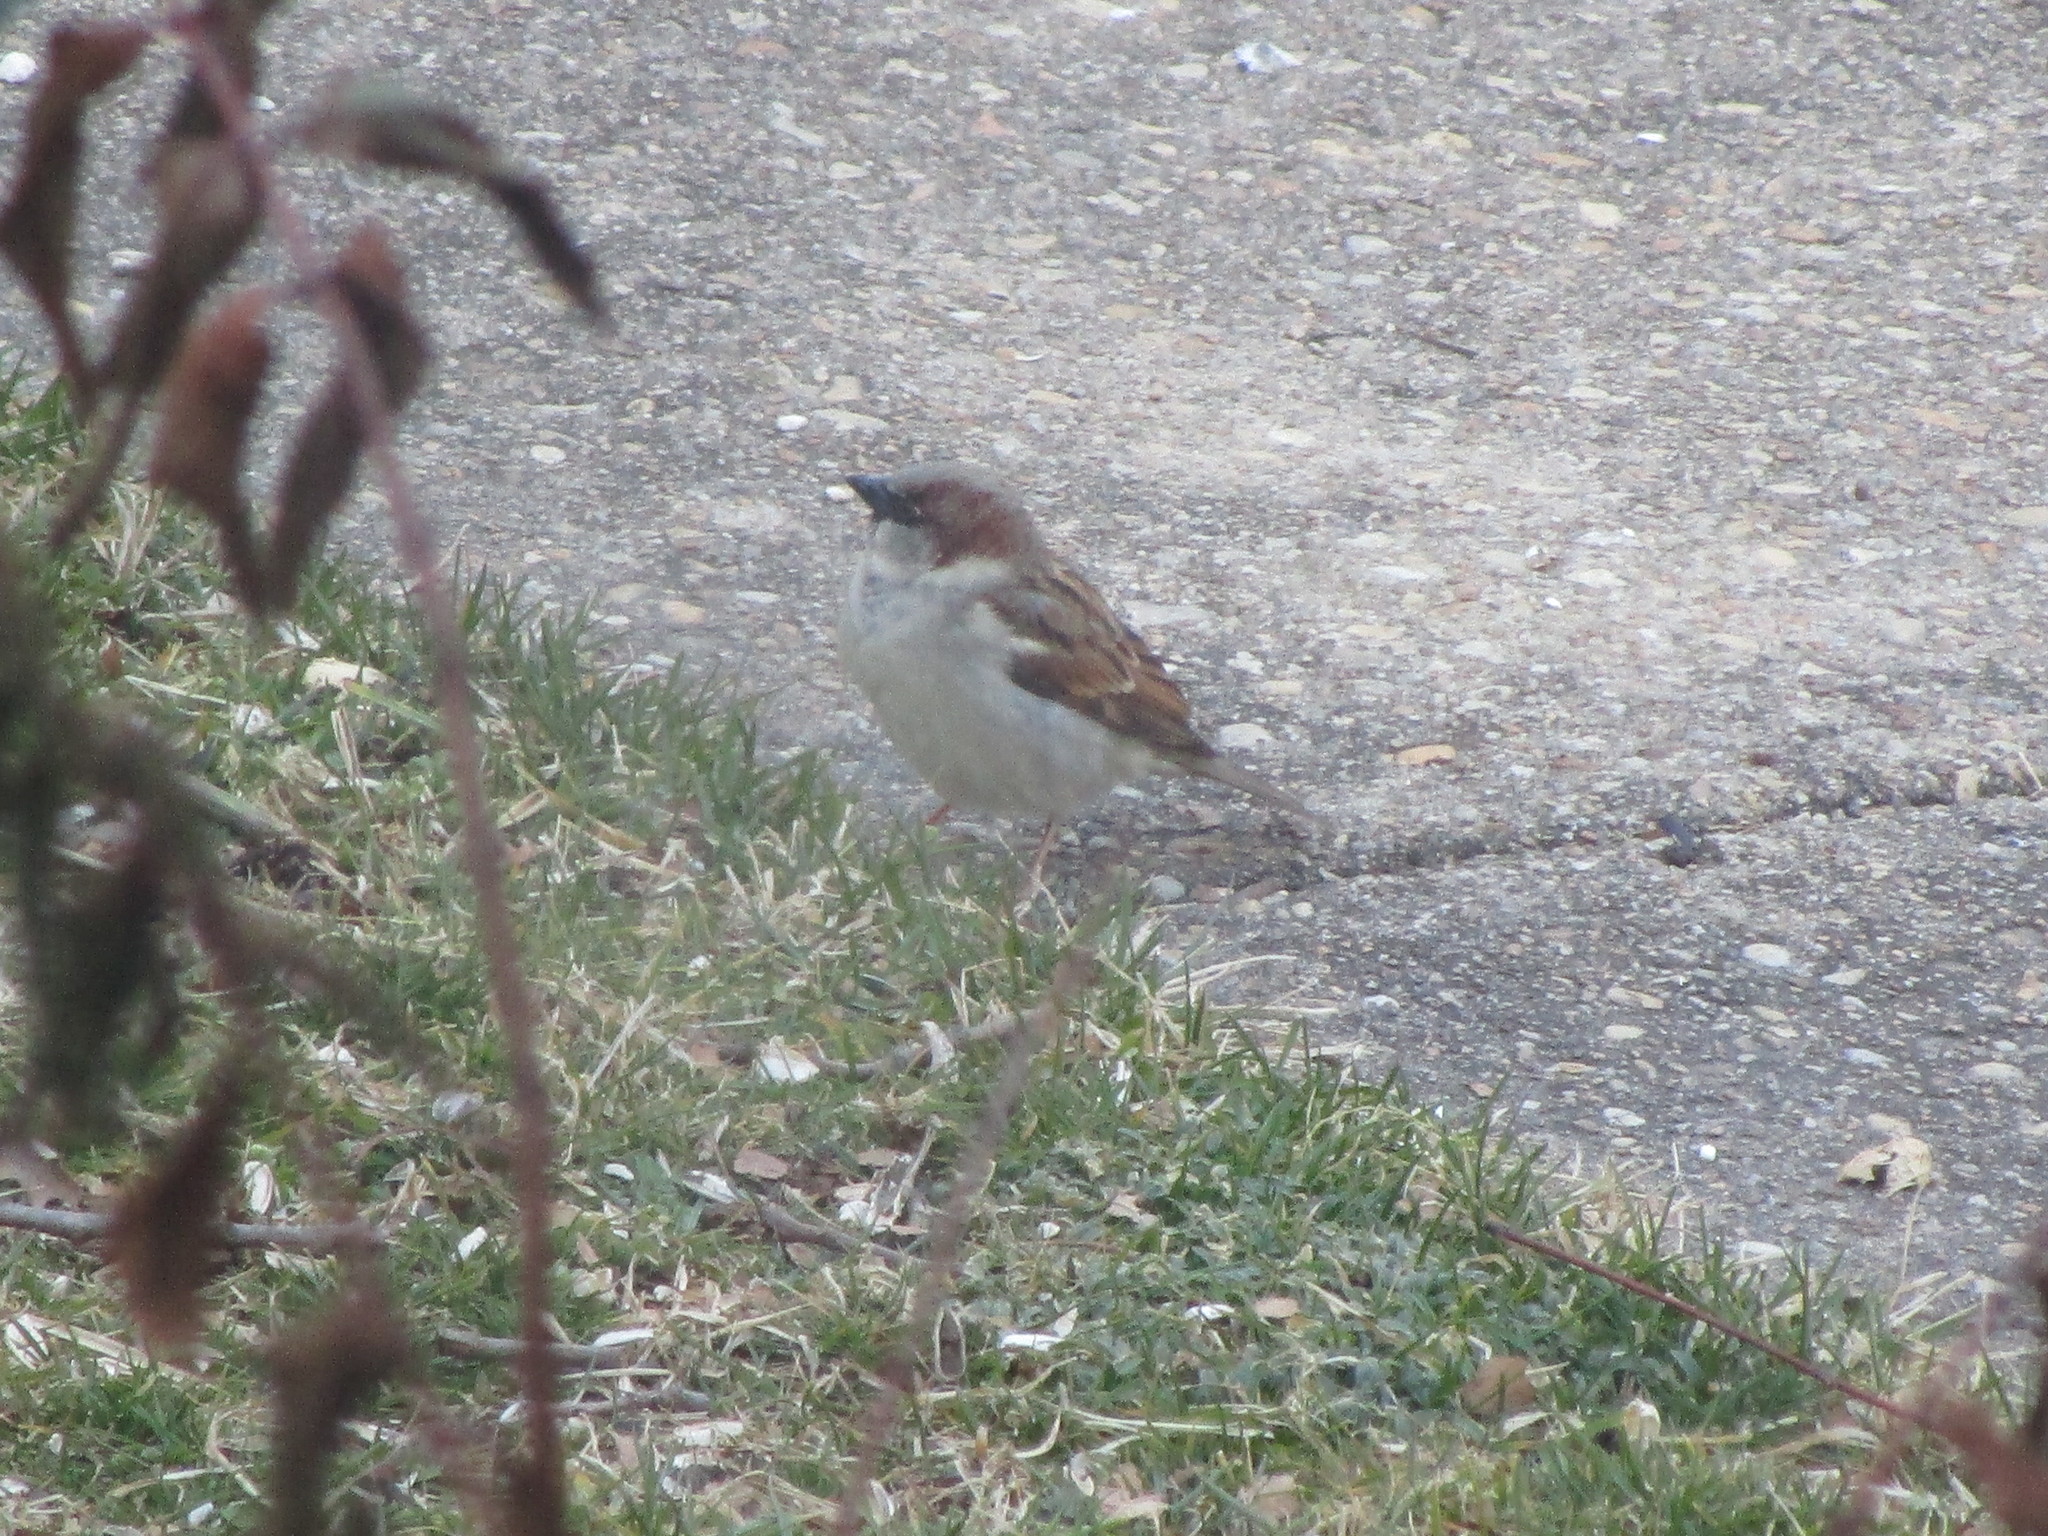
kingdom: Animalia
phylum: Chordata
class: Aves
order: Passeriformes
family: Passeridae
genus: Passer
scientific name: Passer domesticus
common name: House sparrow
